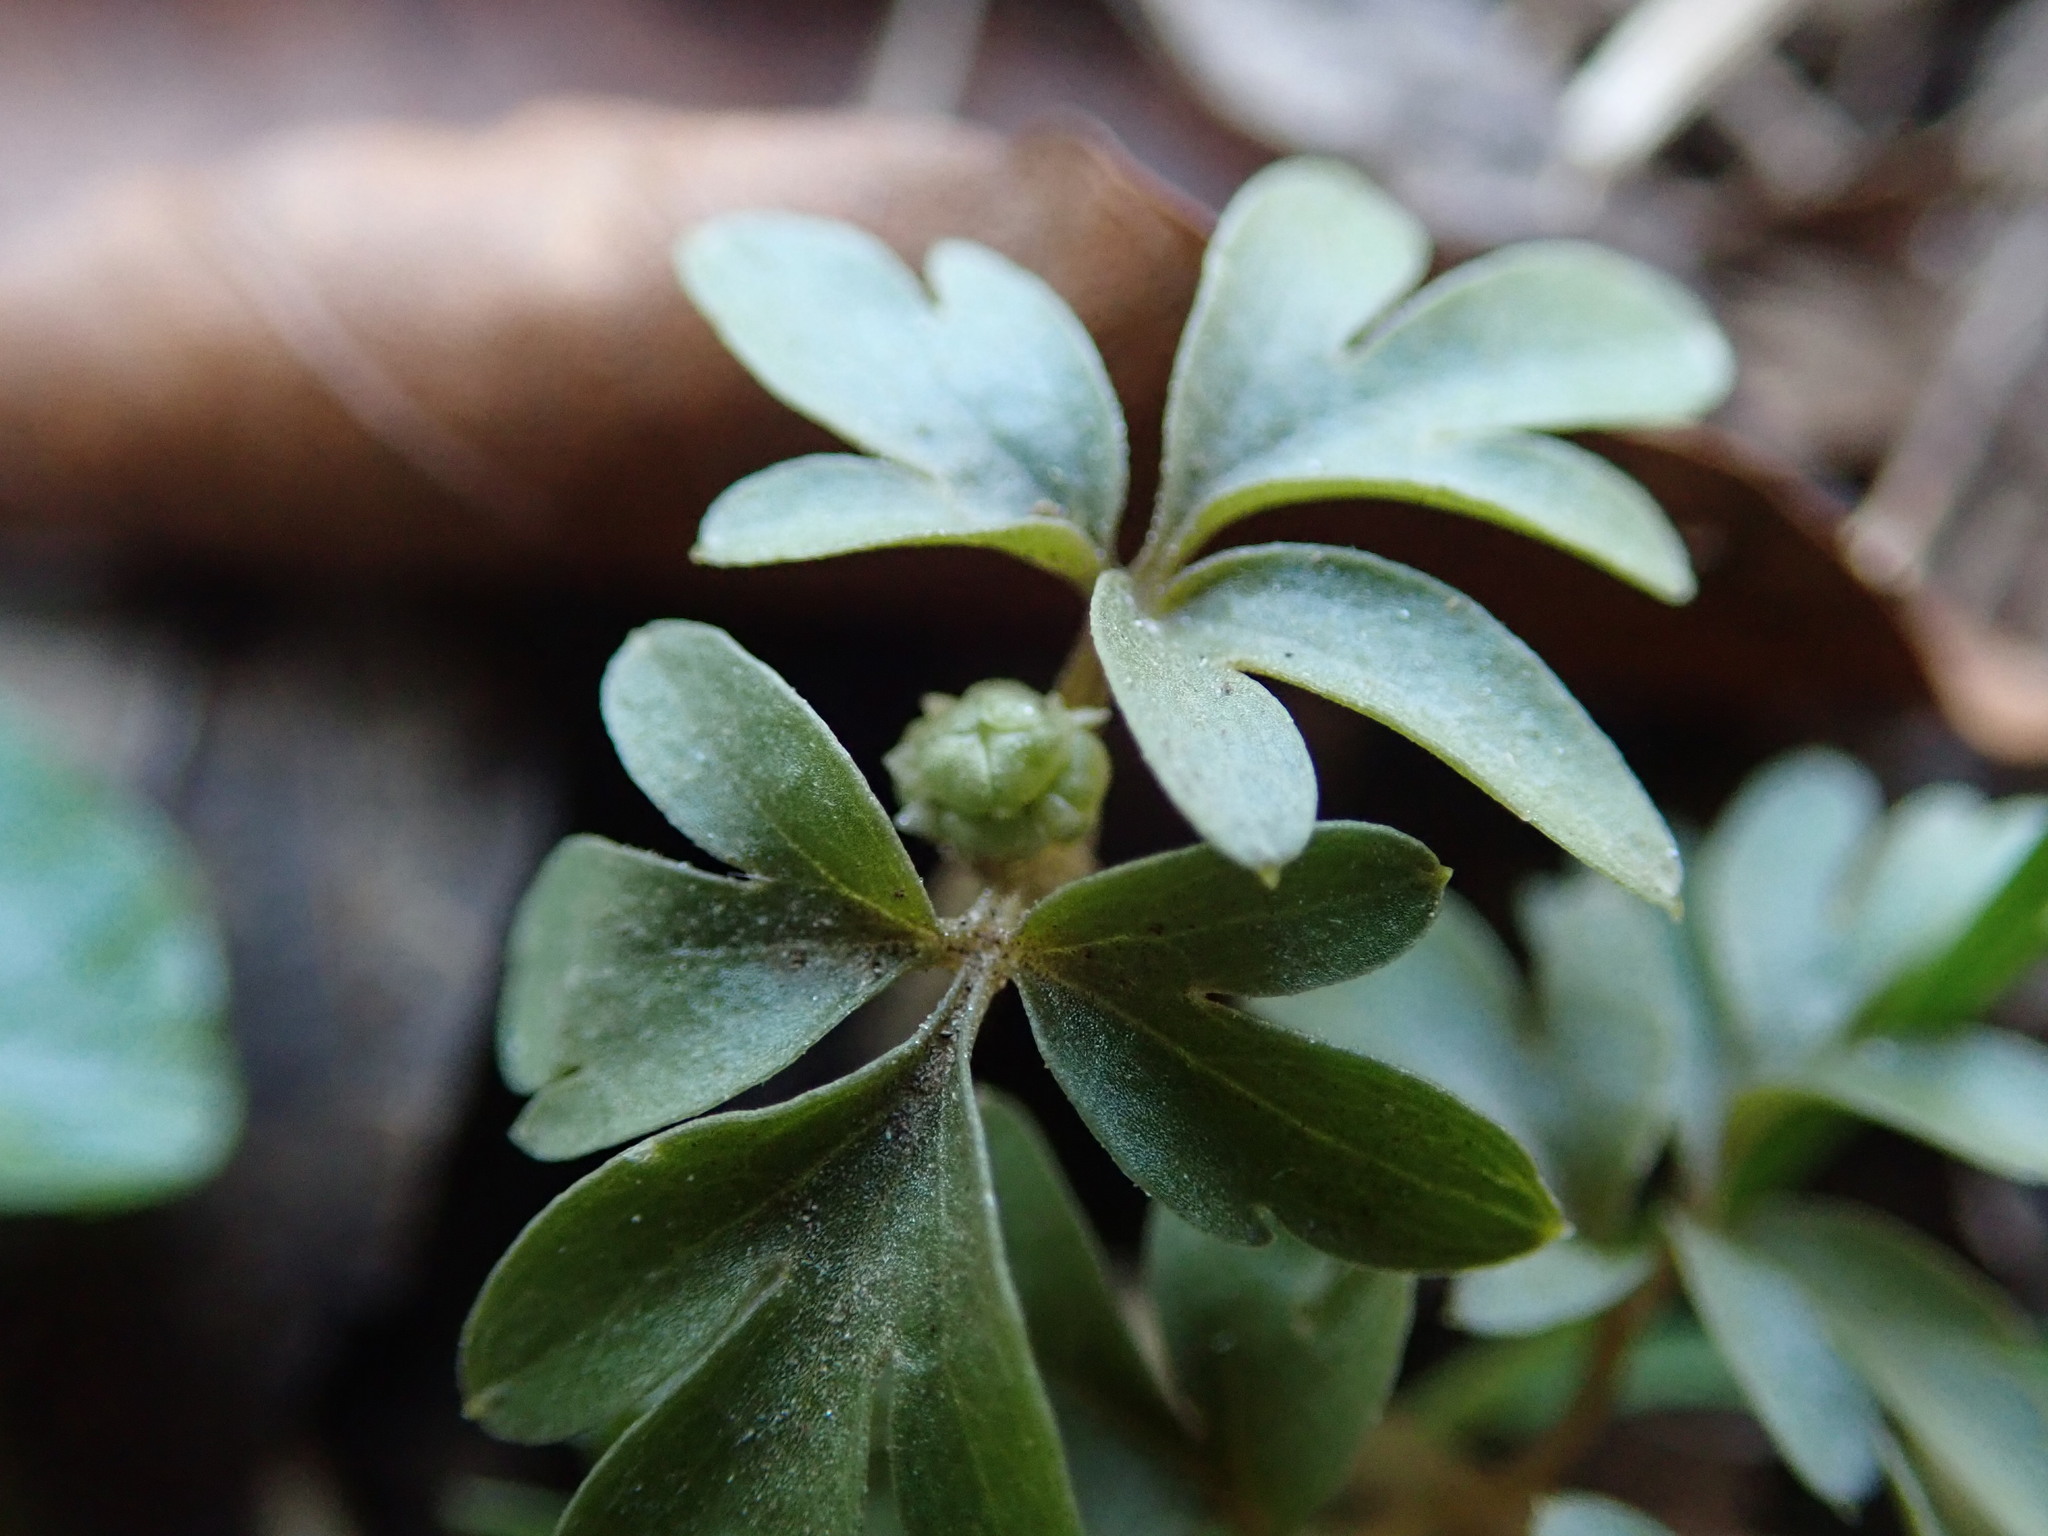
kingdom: Plantae
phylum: Tracheophyta
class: Magnoliopsida
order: Dipsacales
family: Viburnaceae
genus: Adoxa
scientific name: Adoxa moschatellina
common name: Moschatel
